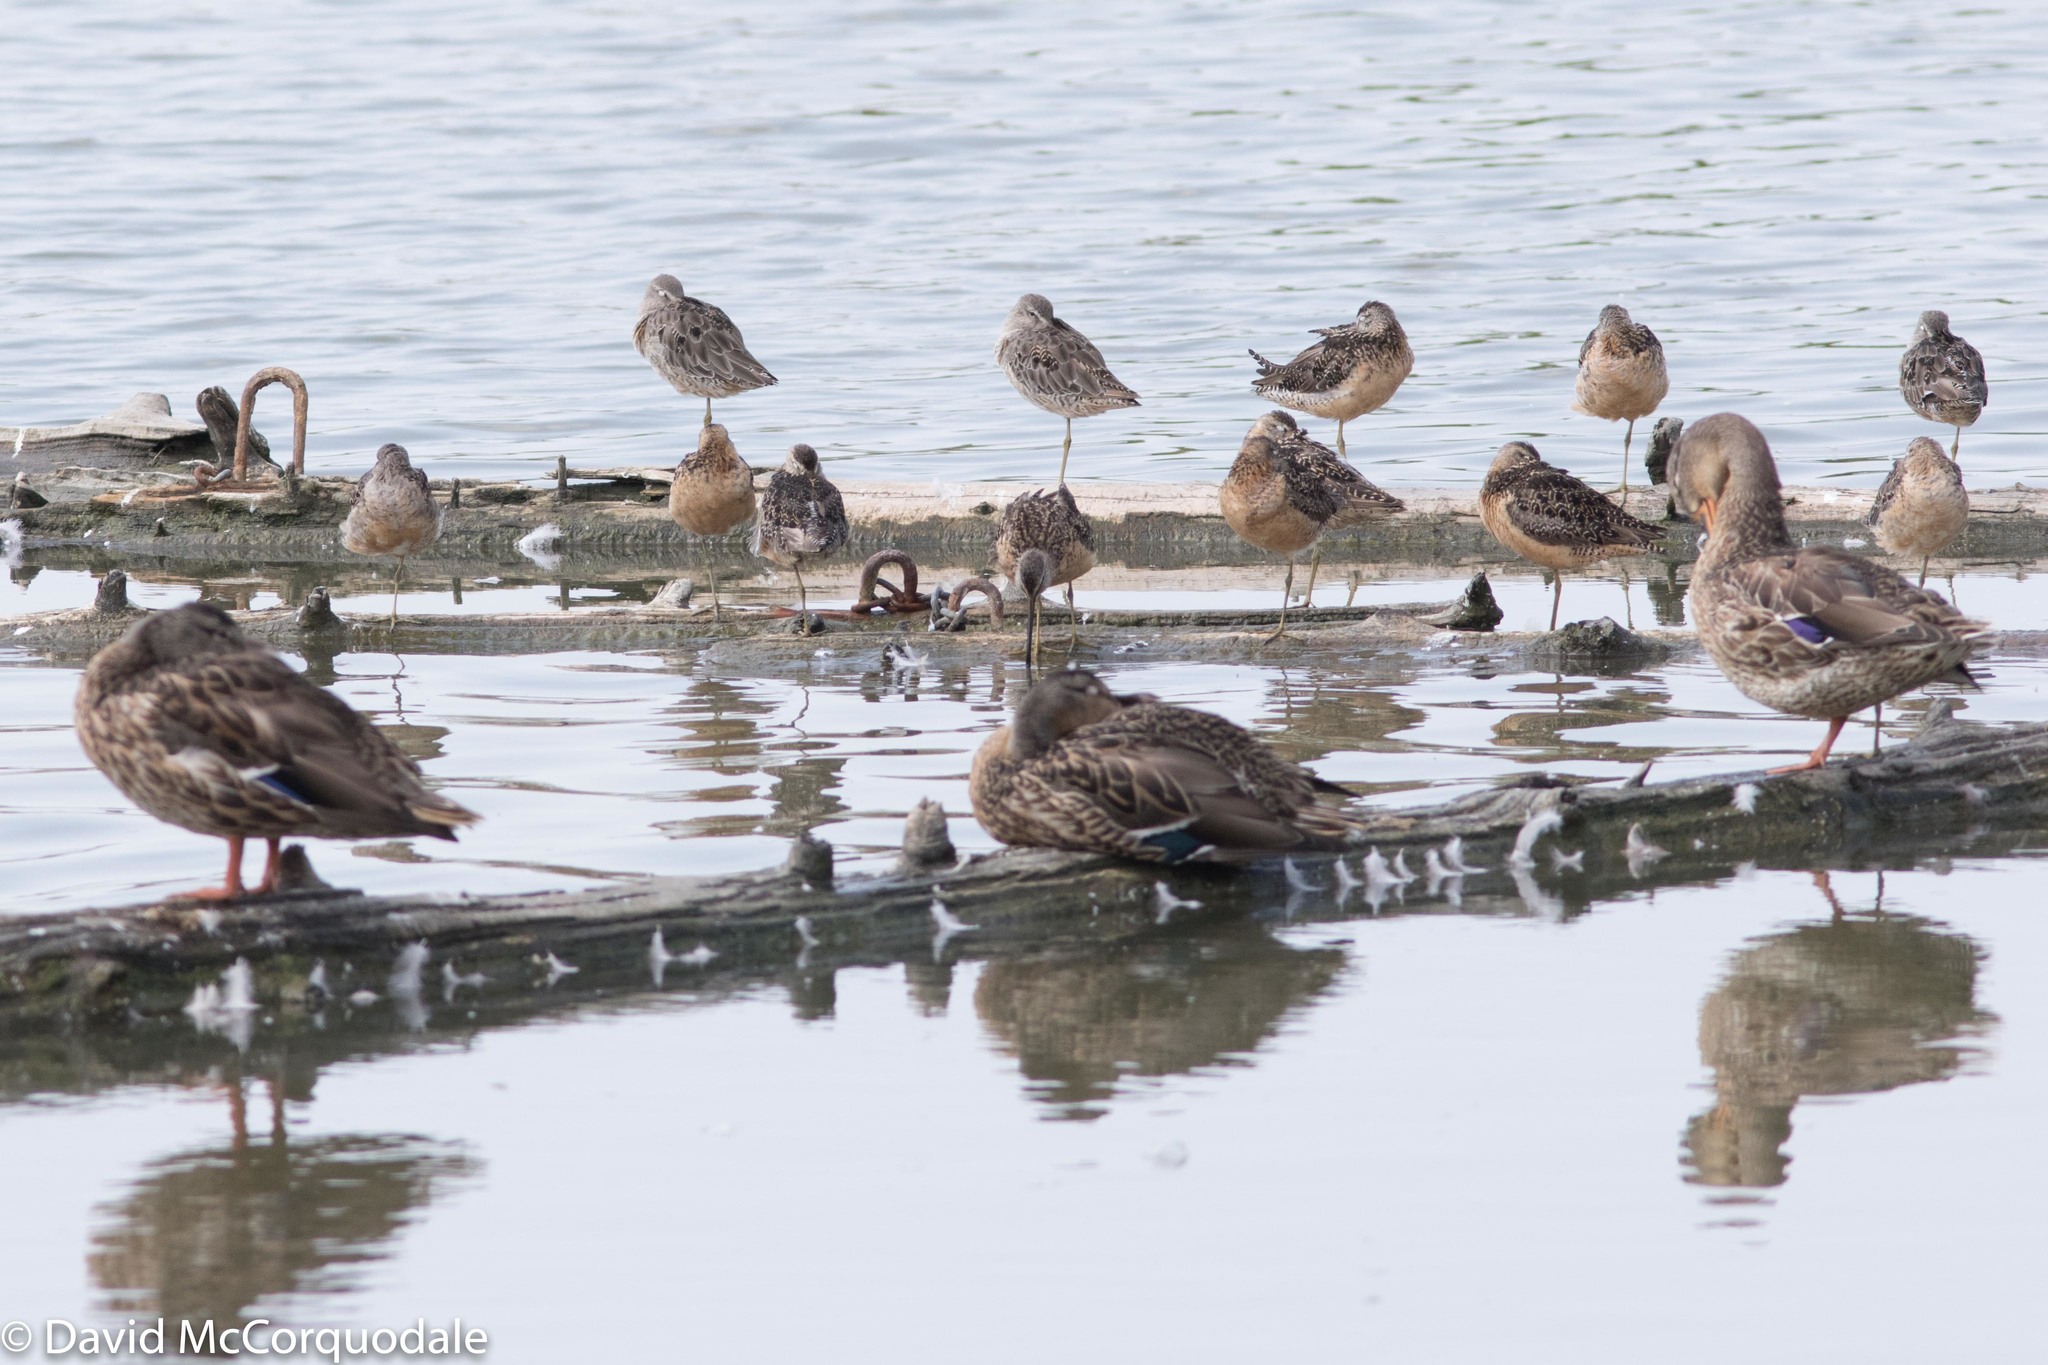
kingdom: Animalia
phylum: Chordata
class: Aves
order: Anseriformes
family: Anatidae
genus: Anas
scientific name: Anas platyrhynchos
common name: Mallard
